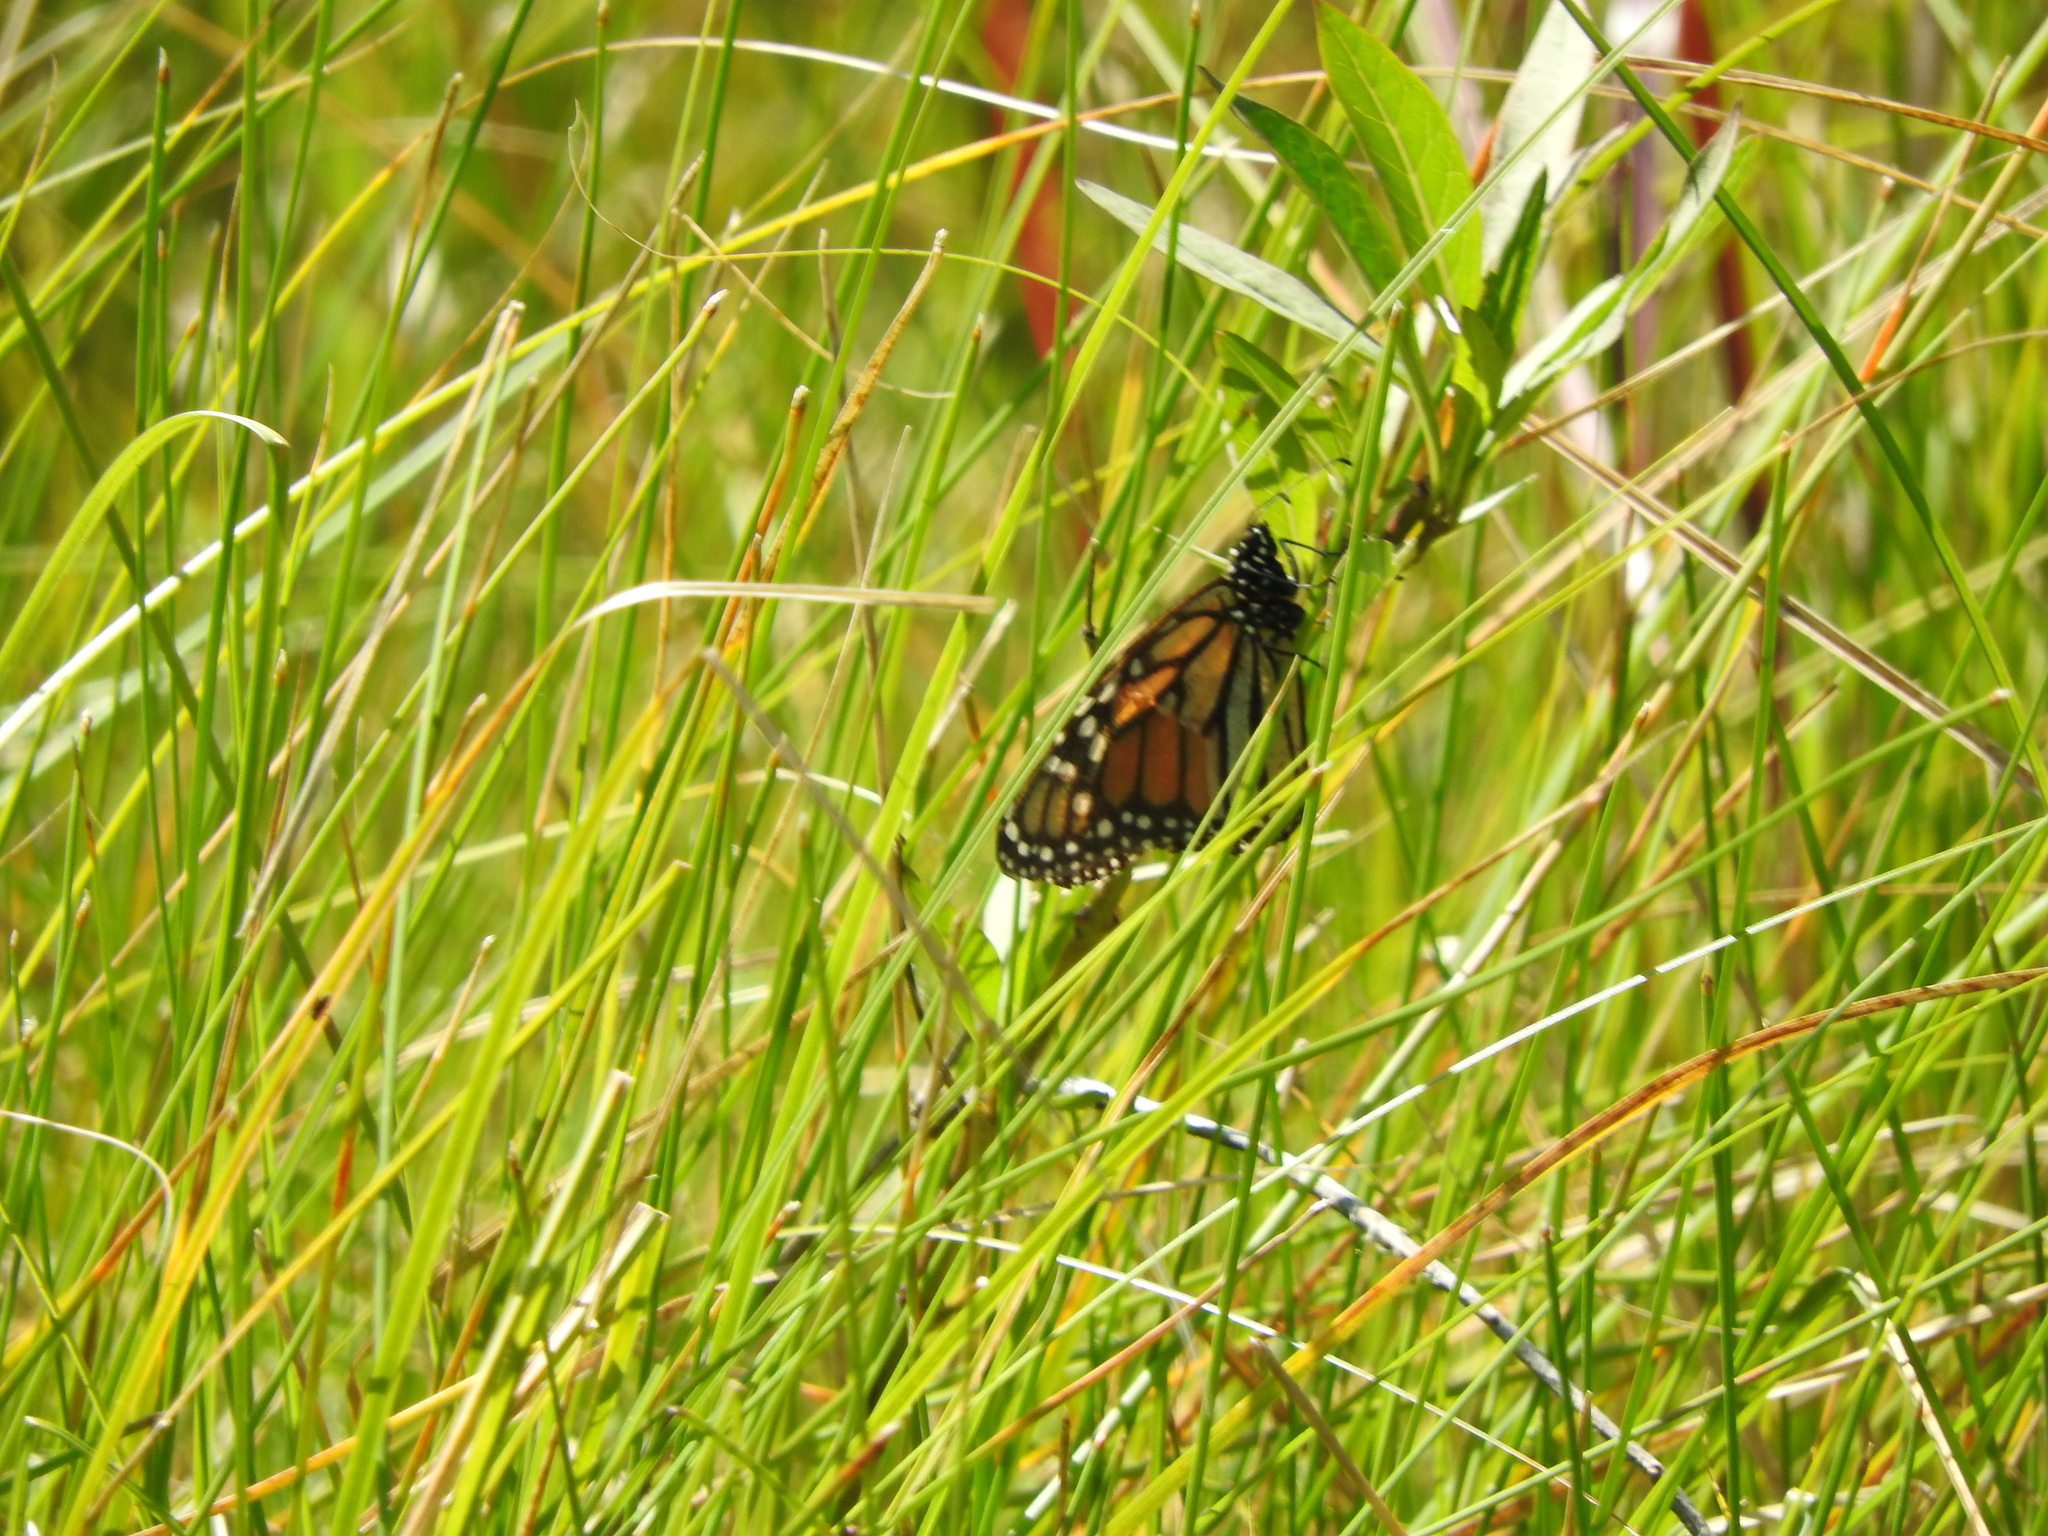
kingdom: Animalia
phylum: Arthropoda
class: Insecta
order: Lepidoptera
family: Nymphalidae
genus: Danaus
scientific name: Danaus plexippus
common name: Monarch
